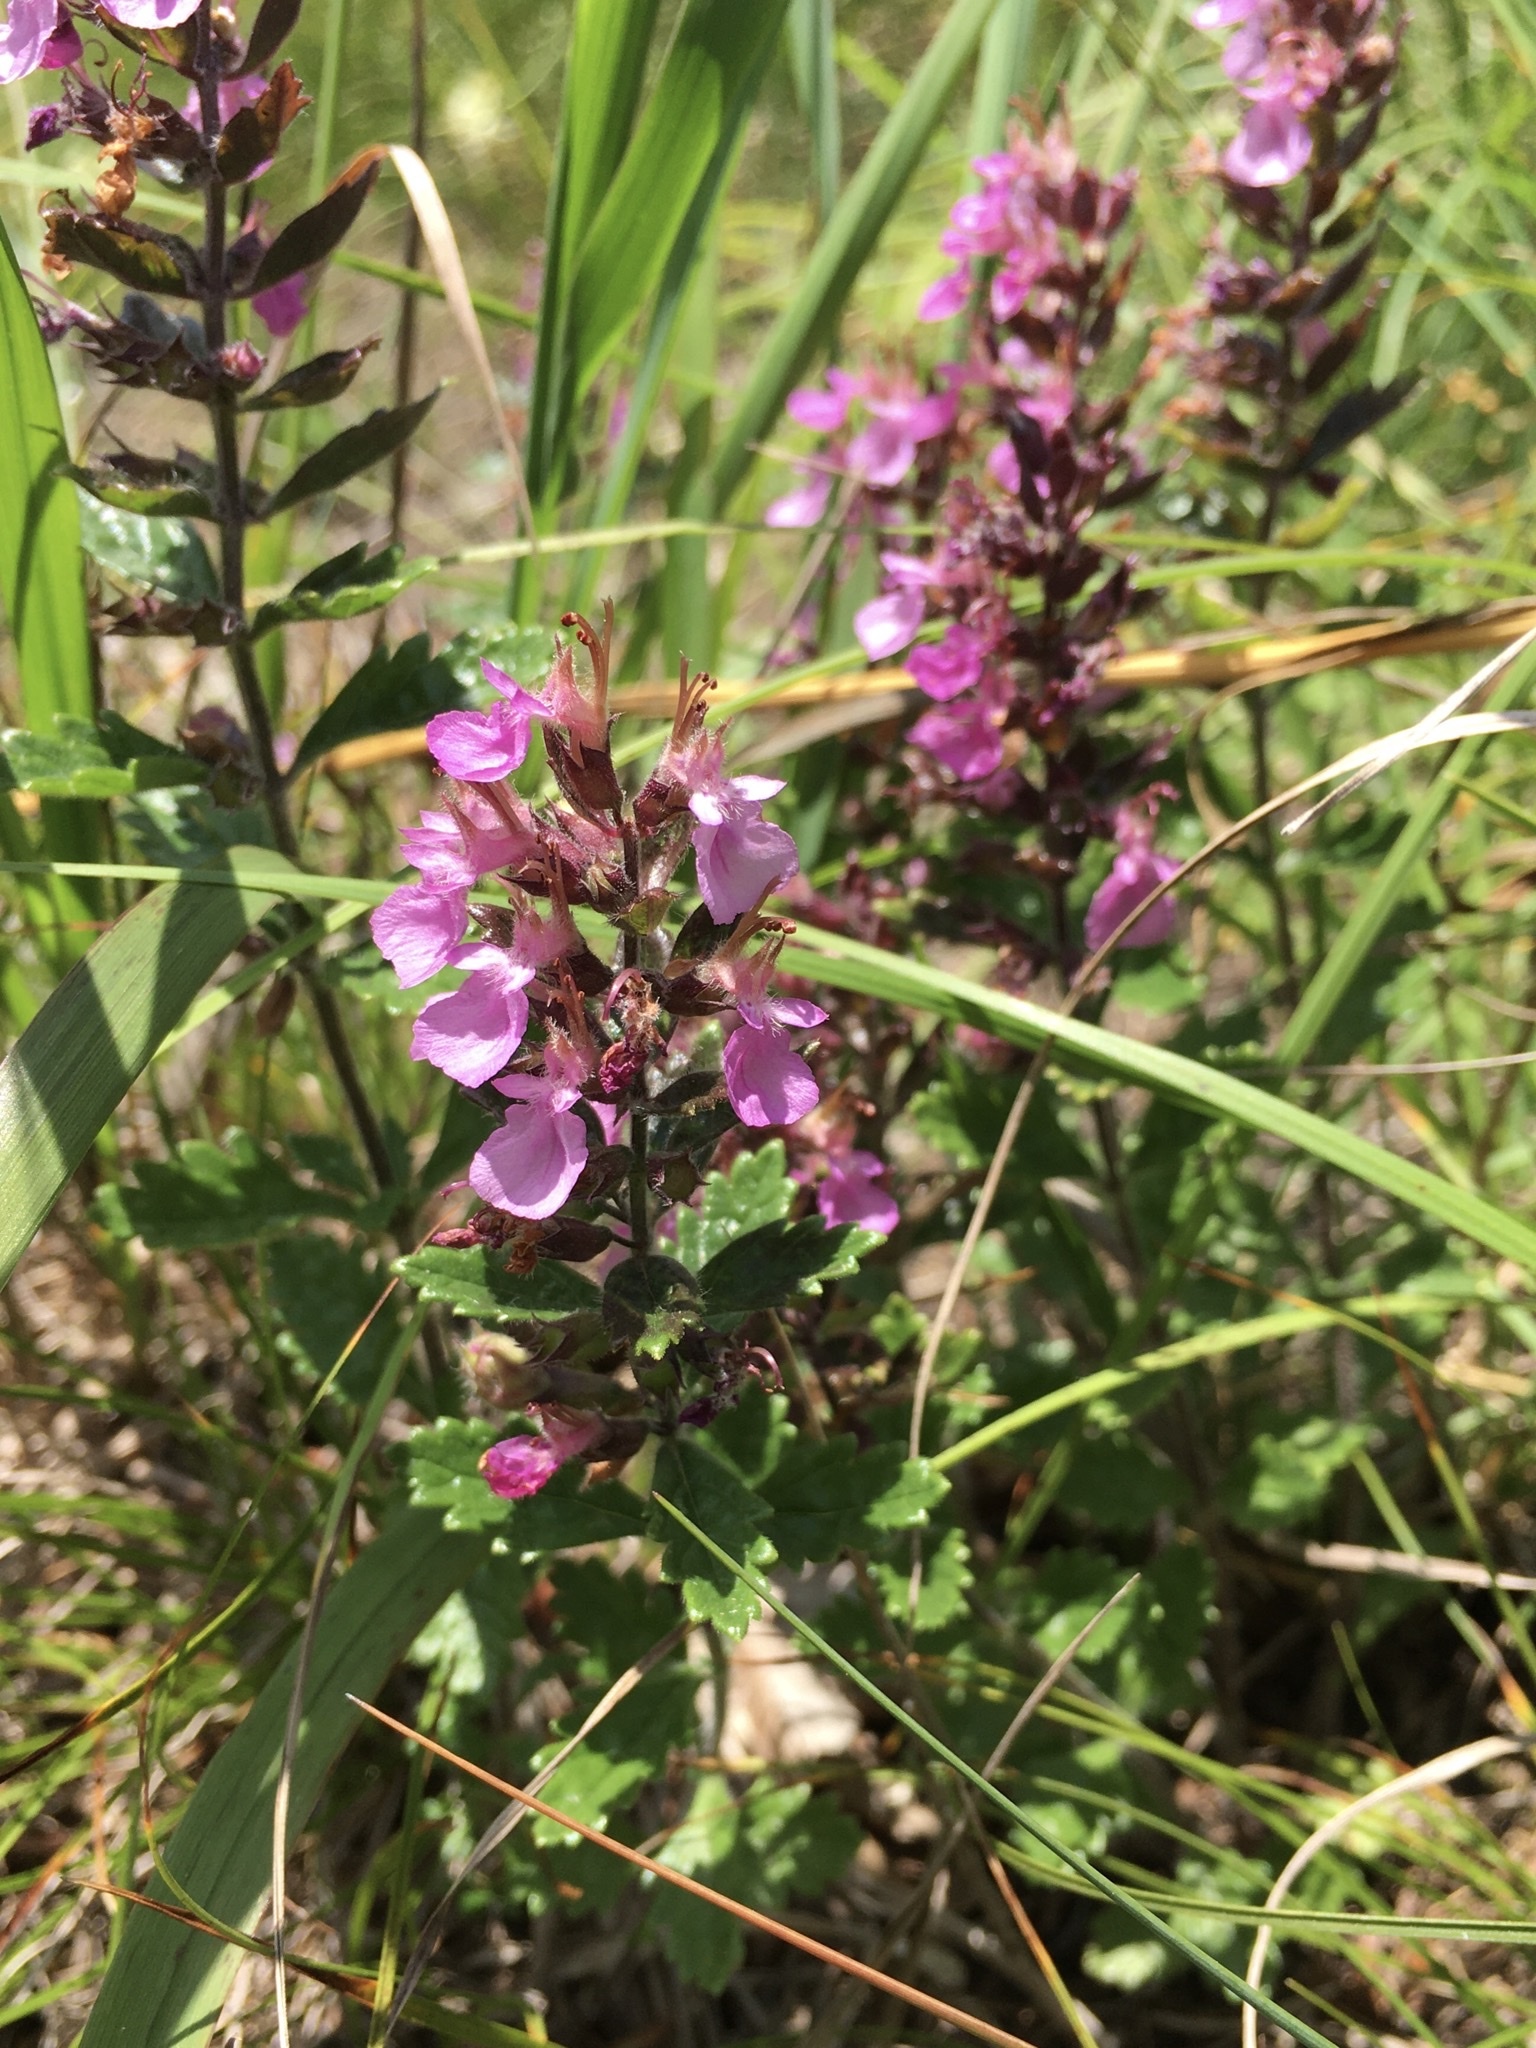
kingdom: Plantae
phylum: Tracheophyta
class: Magnoliopsida
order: Lamiales
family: Lamiaceae
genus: Teucrium
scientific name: Teucrium chamaedrys
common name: Wall germander
